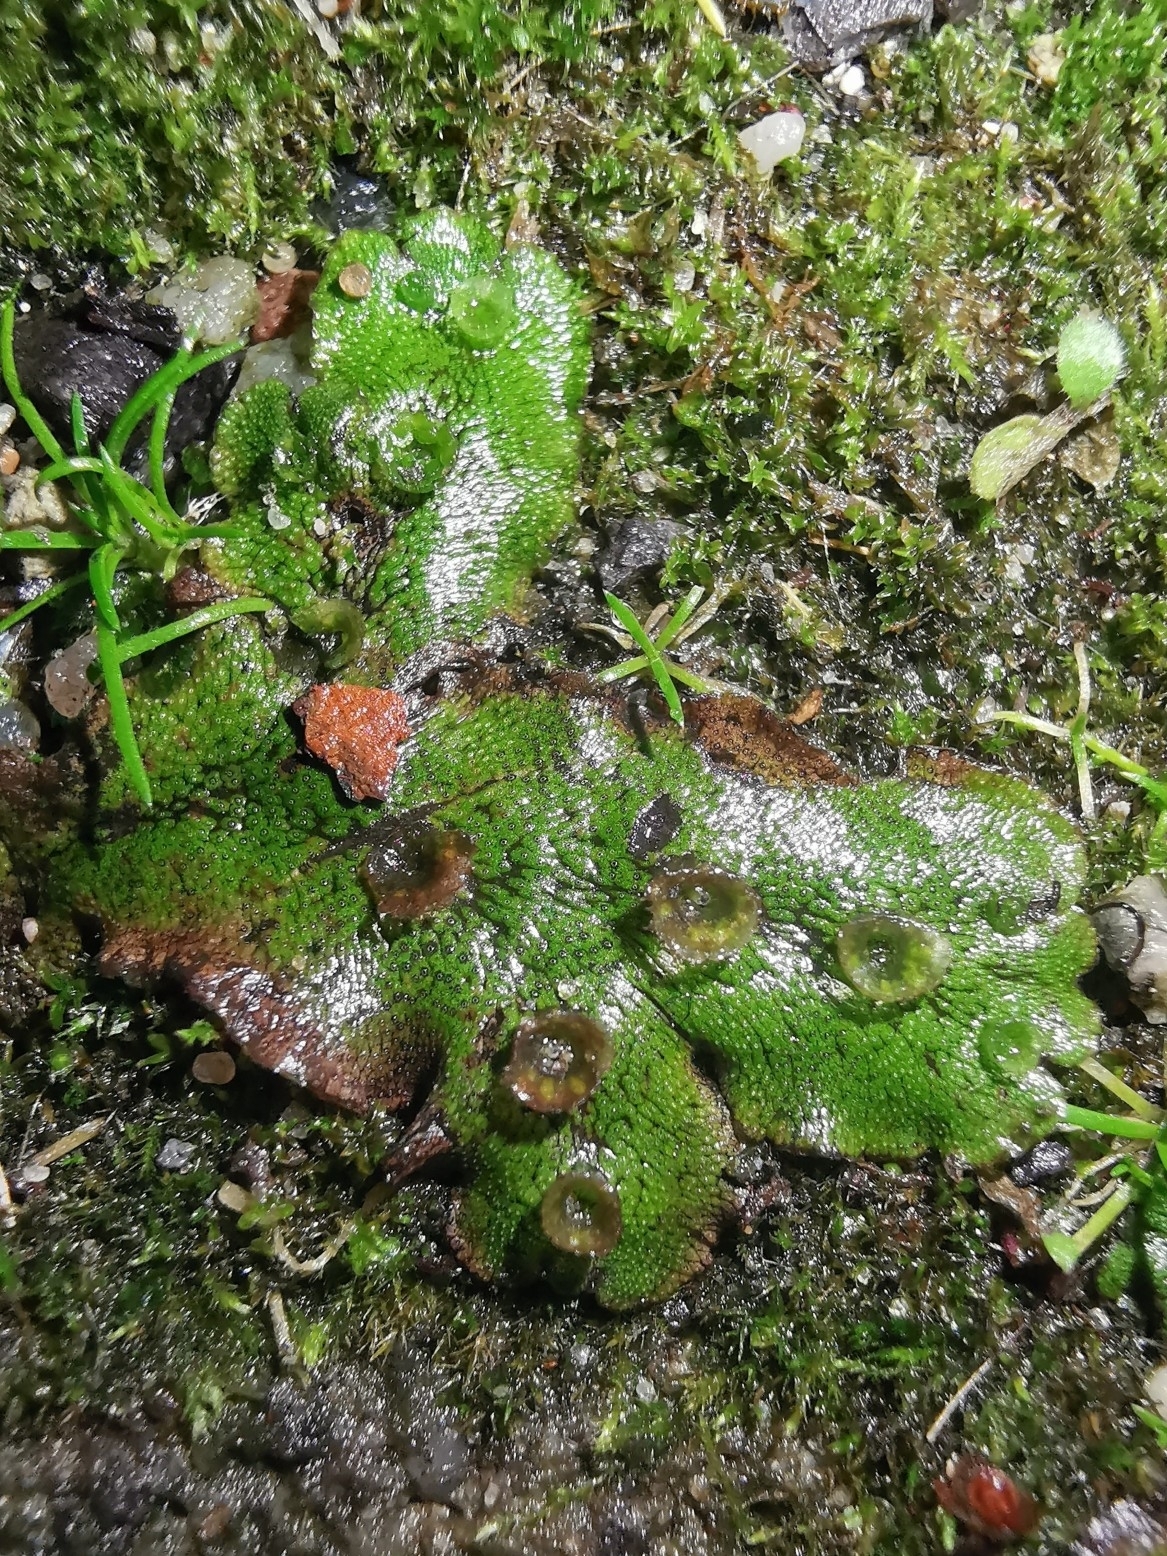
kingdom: Plantae
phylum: Marchantiophyta
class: Marchantiopsida
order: Marchantiales
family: Marchantiaceae
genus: Marchantia
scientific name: Marchantia polymorpha
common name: Common liverwort
